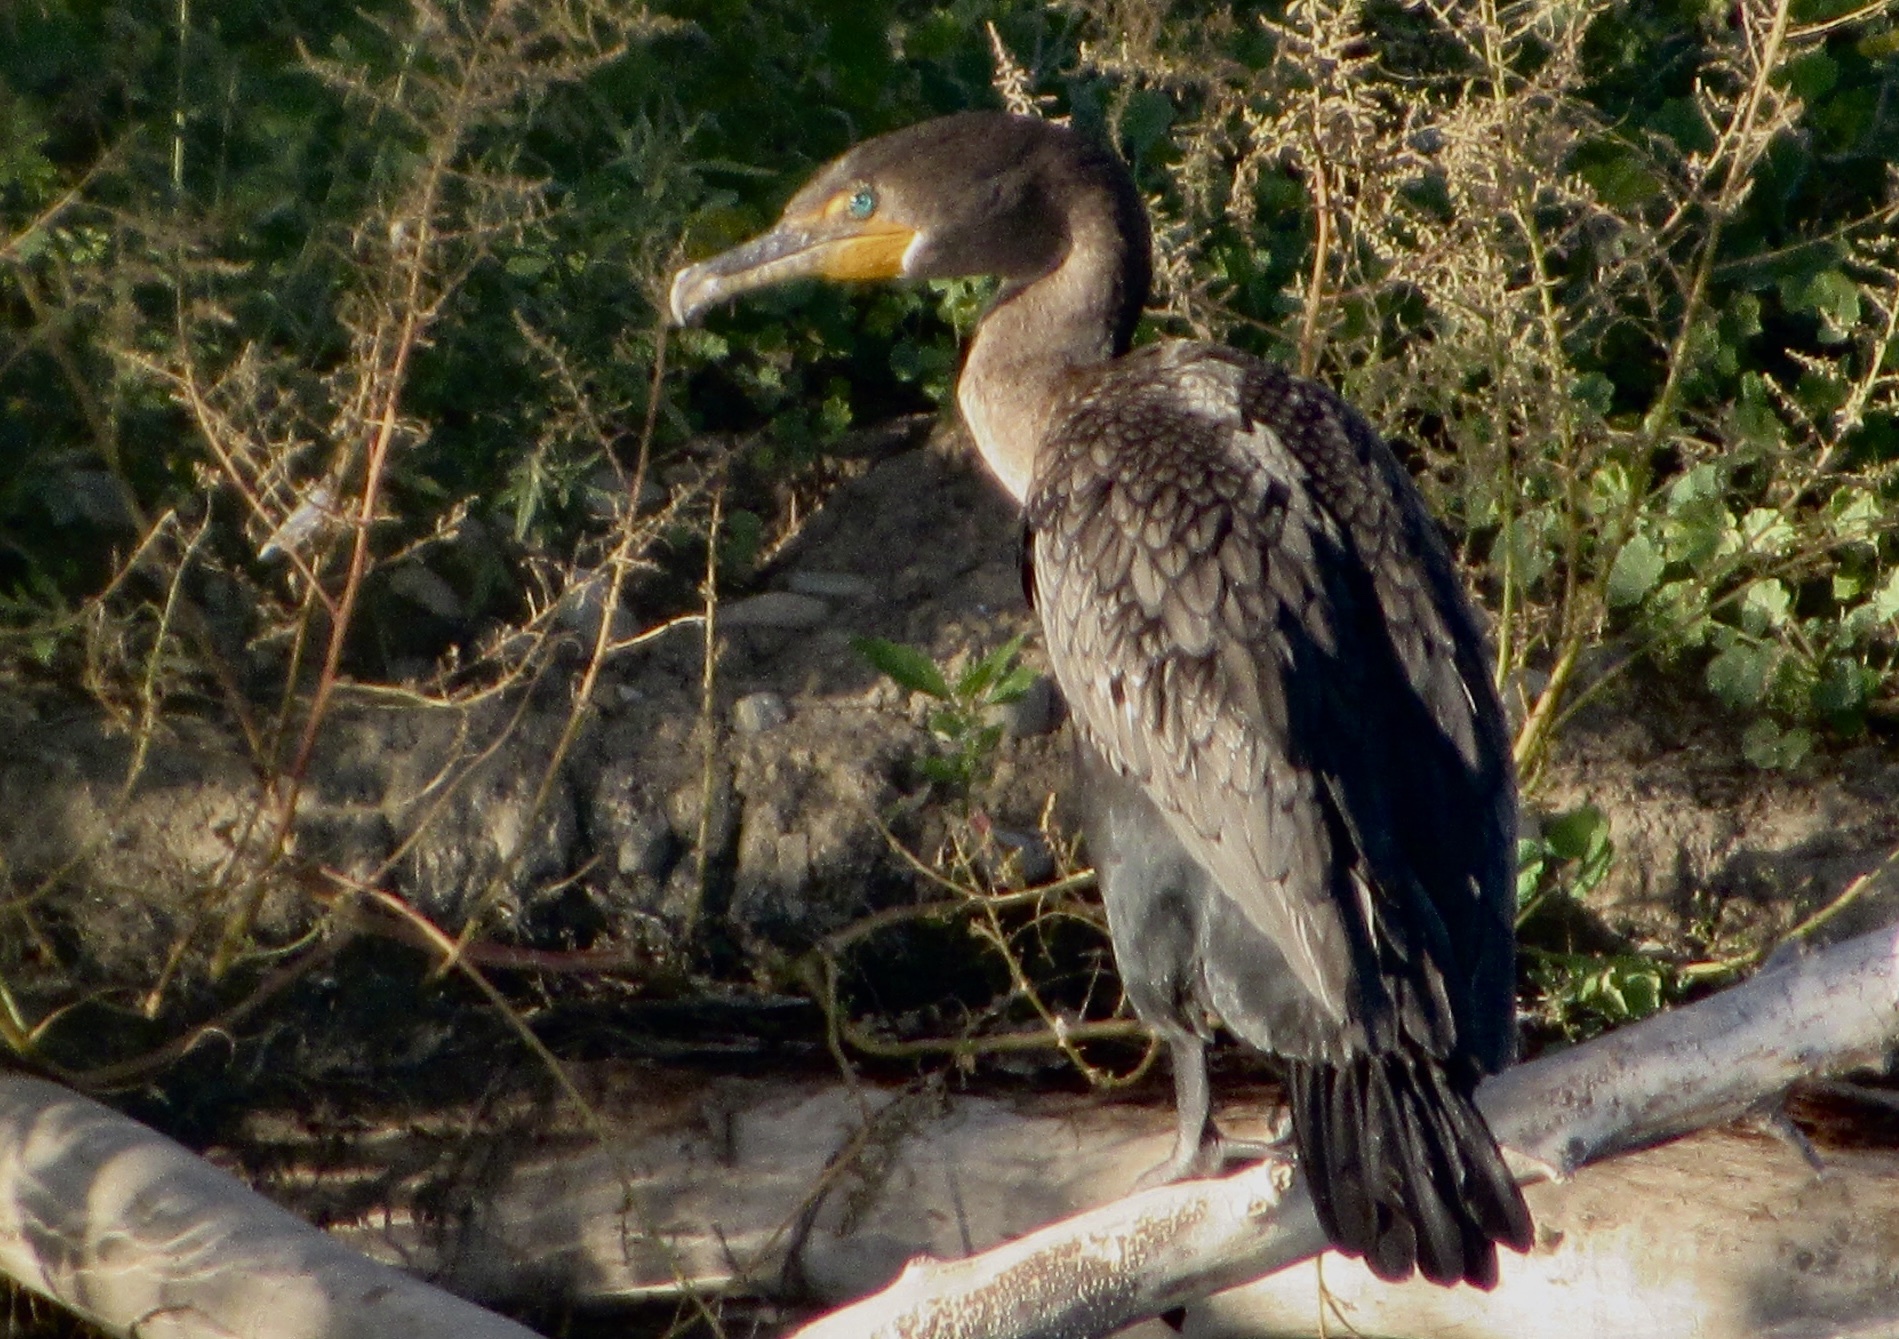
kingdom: Animalia
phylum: Chordata
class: Aves
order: Suliformes
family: Phalacrocoracidae
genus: Phalacrocorax
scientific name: Phalacrocorax auritus
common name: Double-crested cormorant
